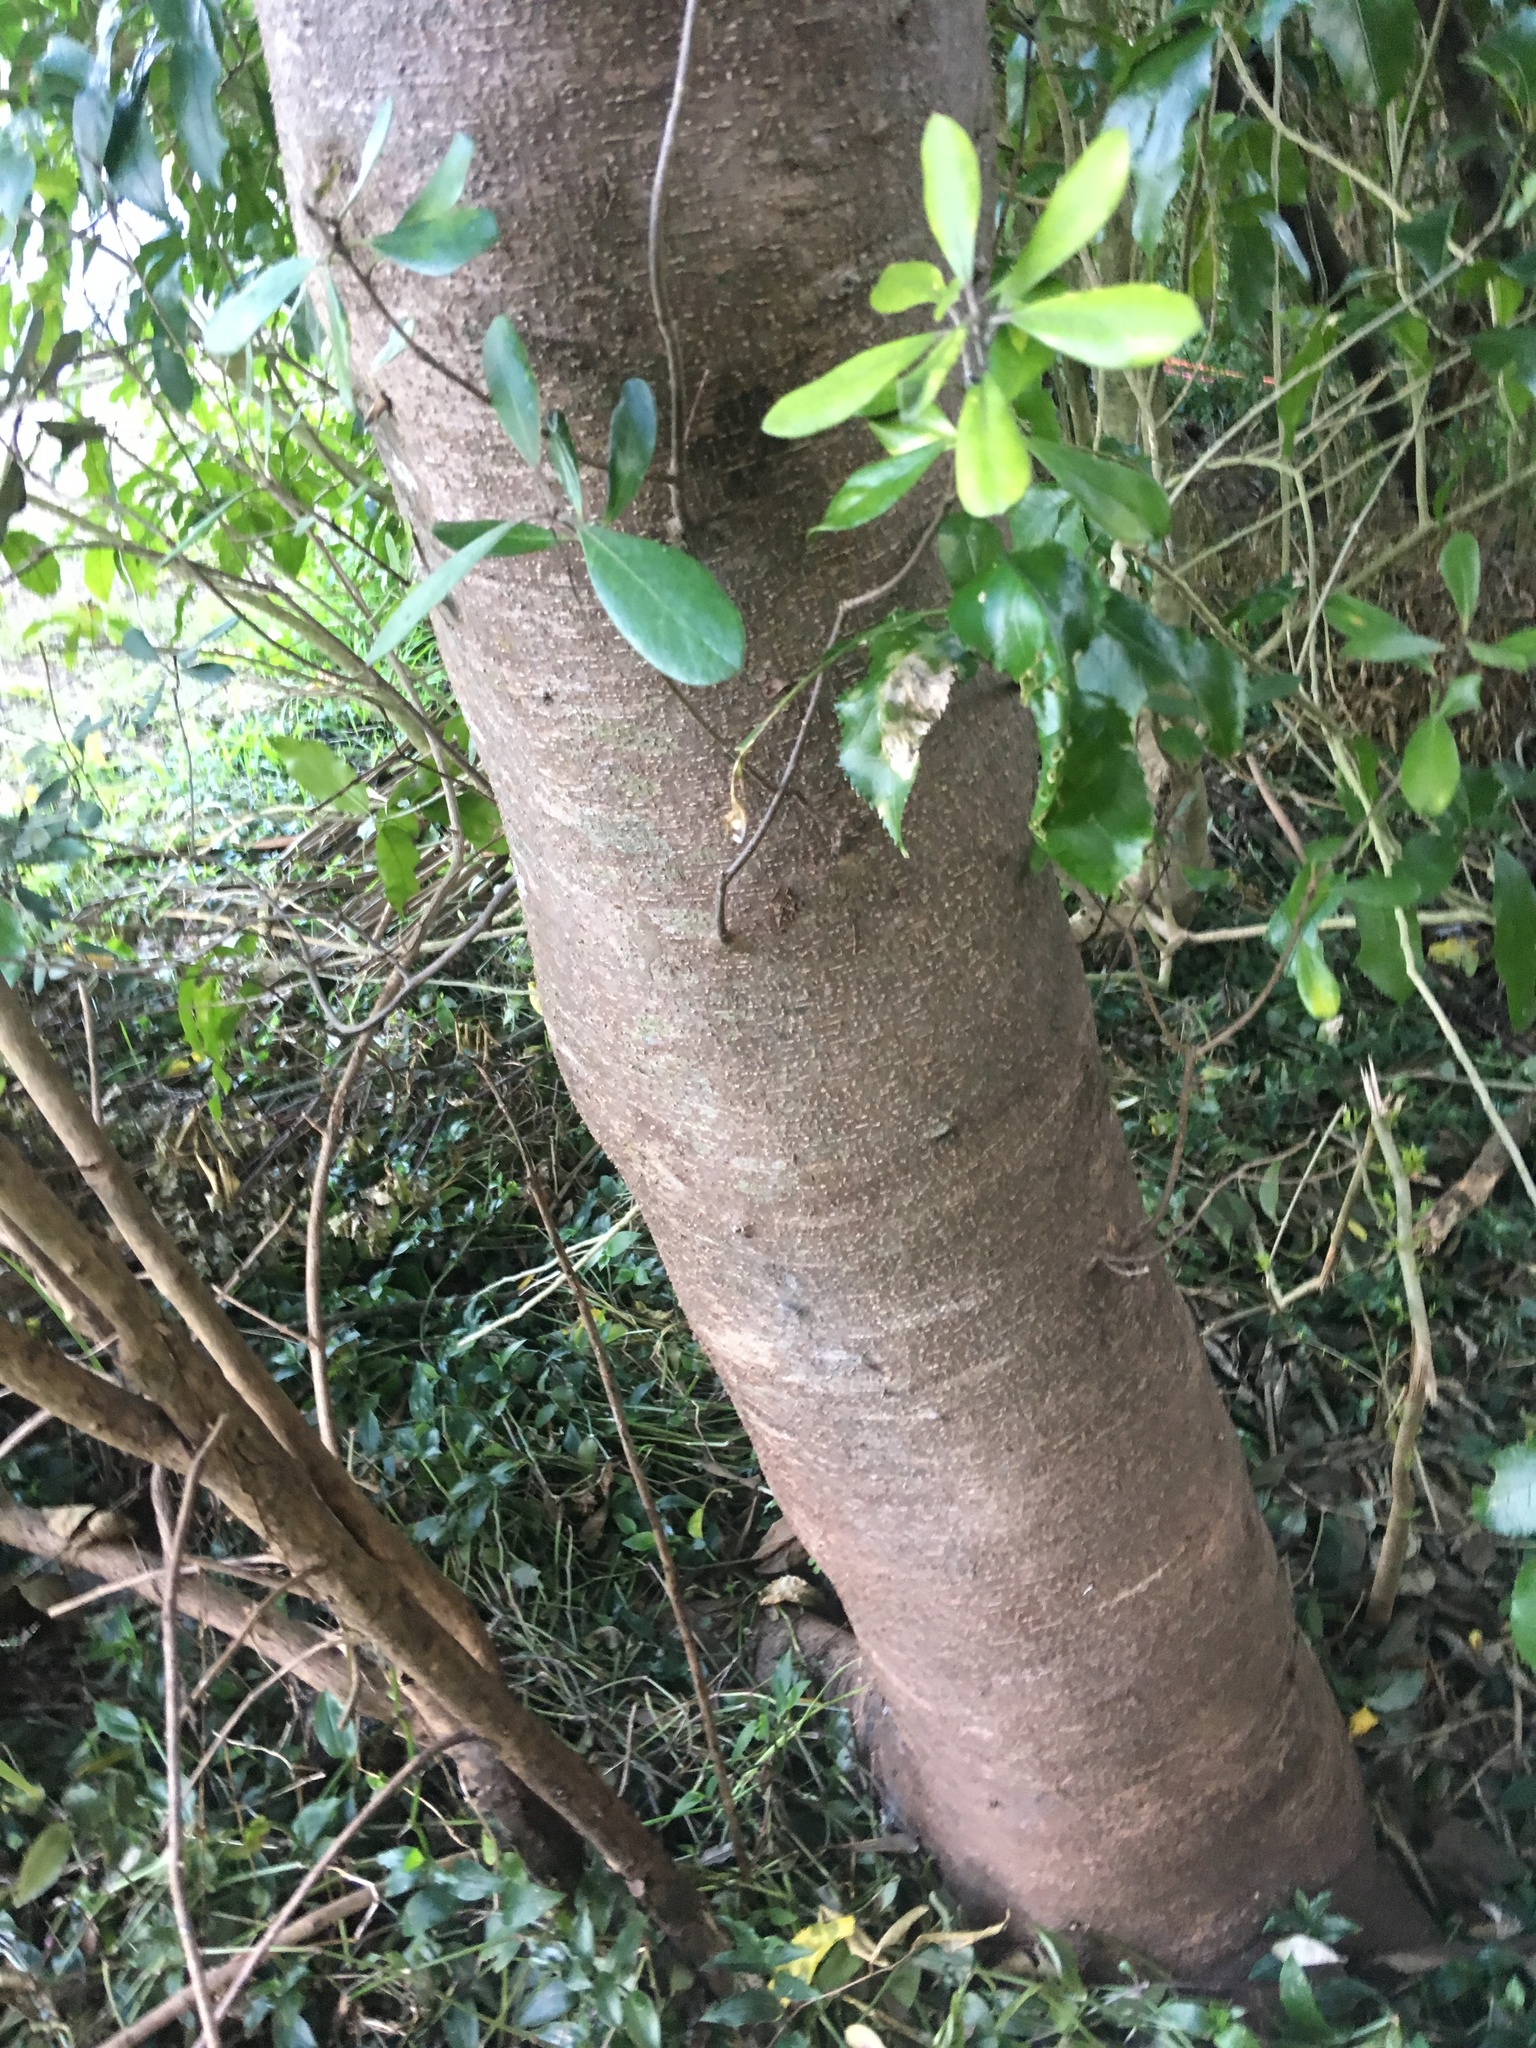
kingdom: Plantae
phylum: Tracheophyta
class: Magnoliopsida
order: Apiales
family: Pittosporaceae
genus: Pittosporum
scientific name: Pittosporum crassifolium
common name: Karo
